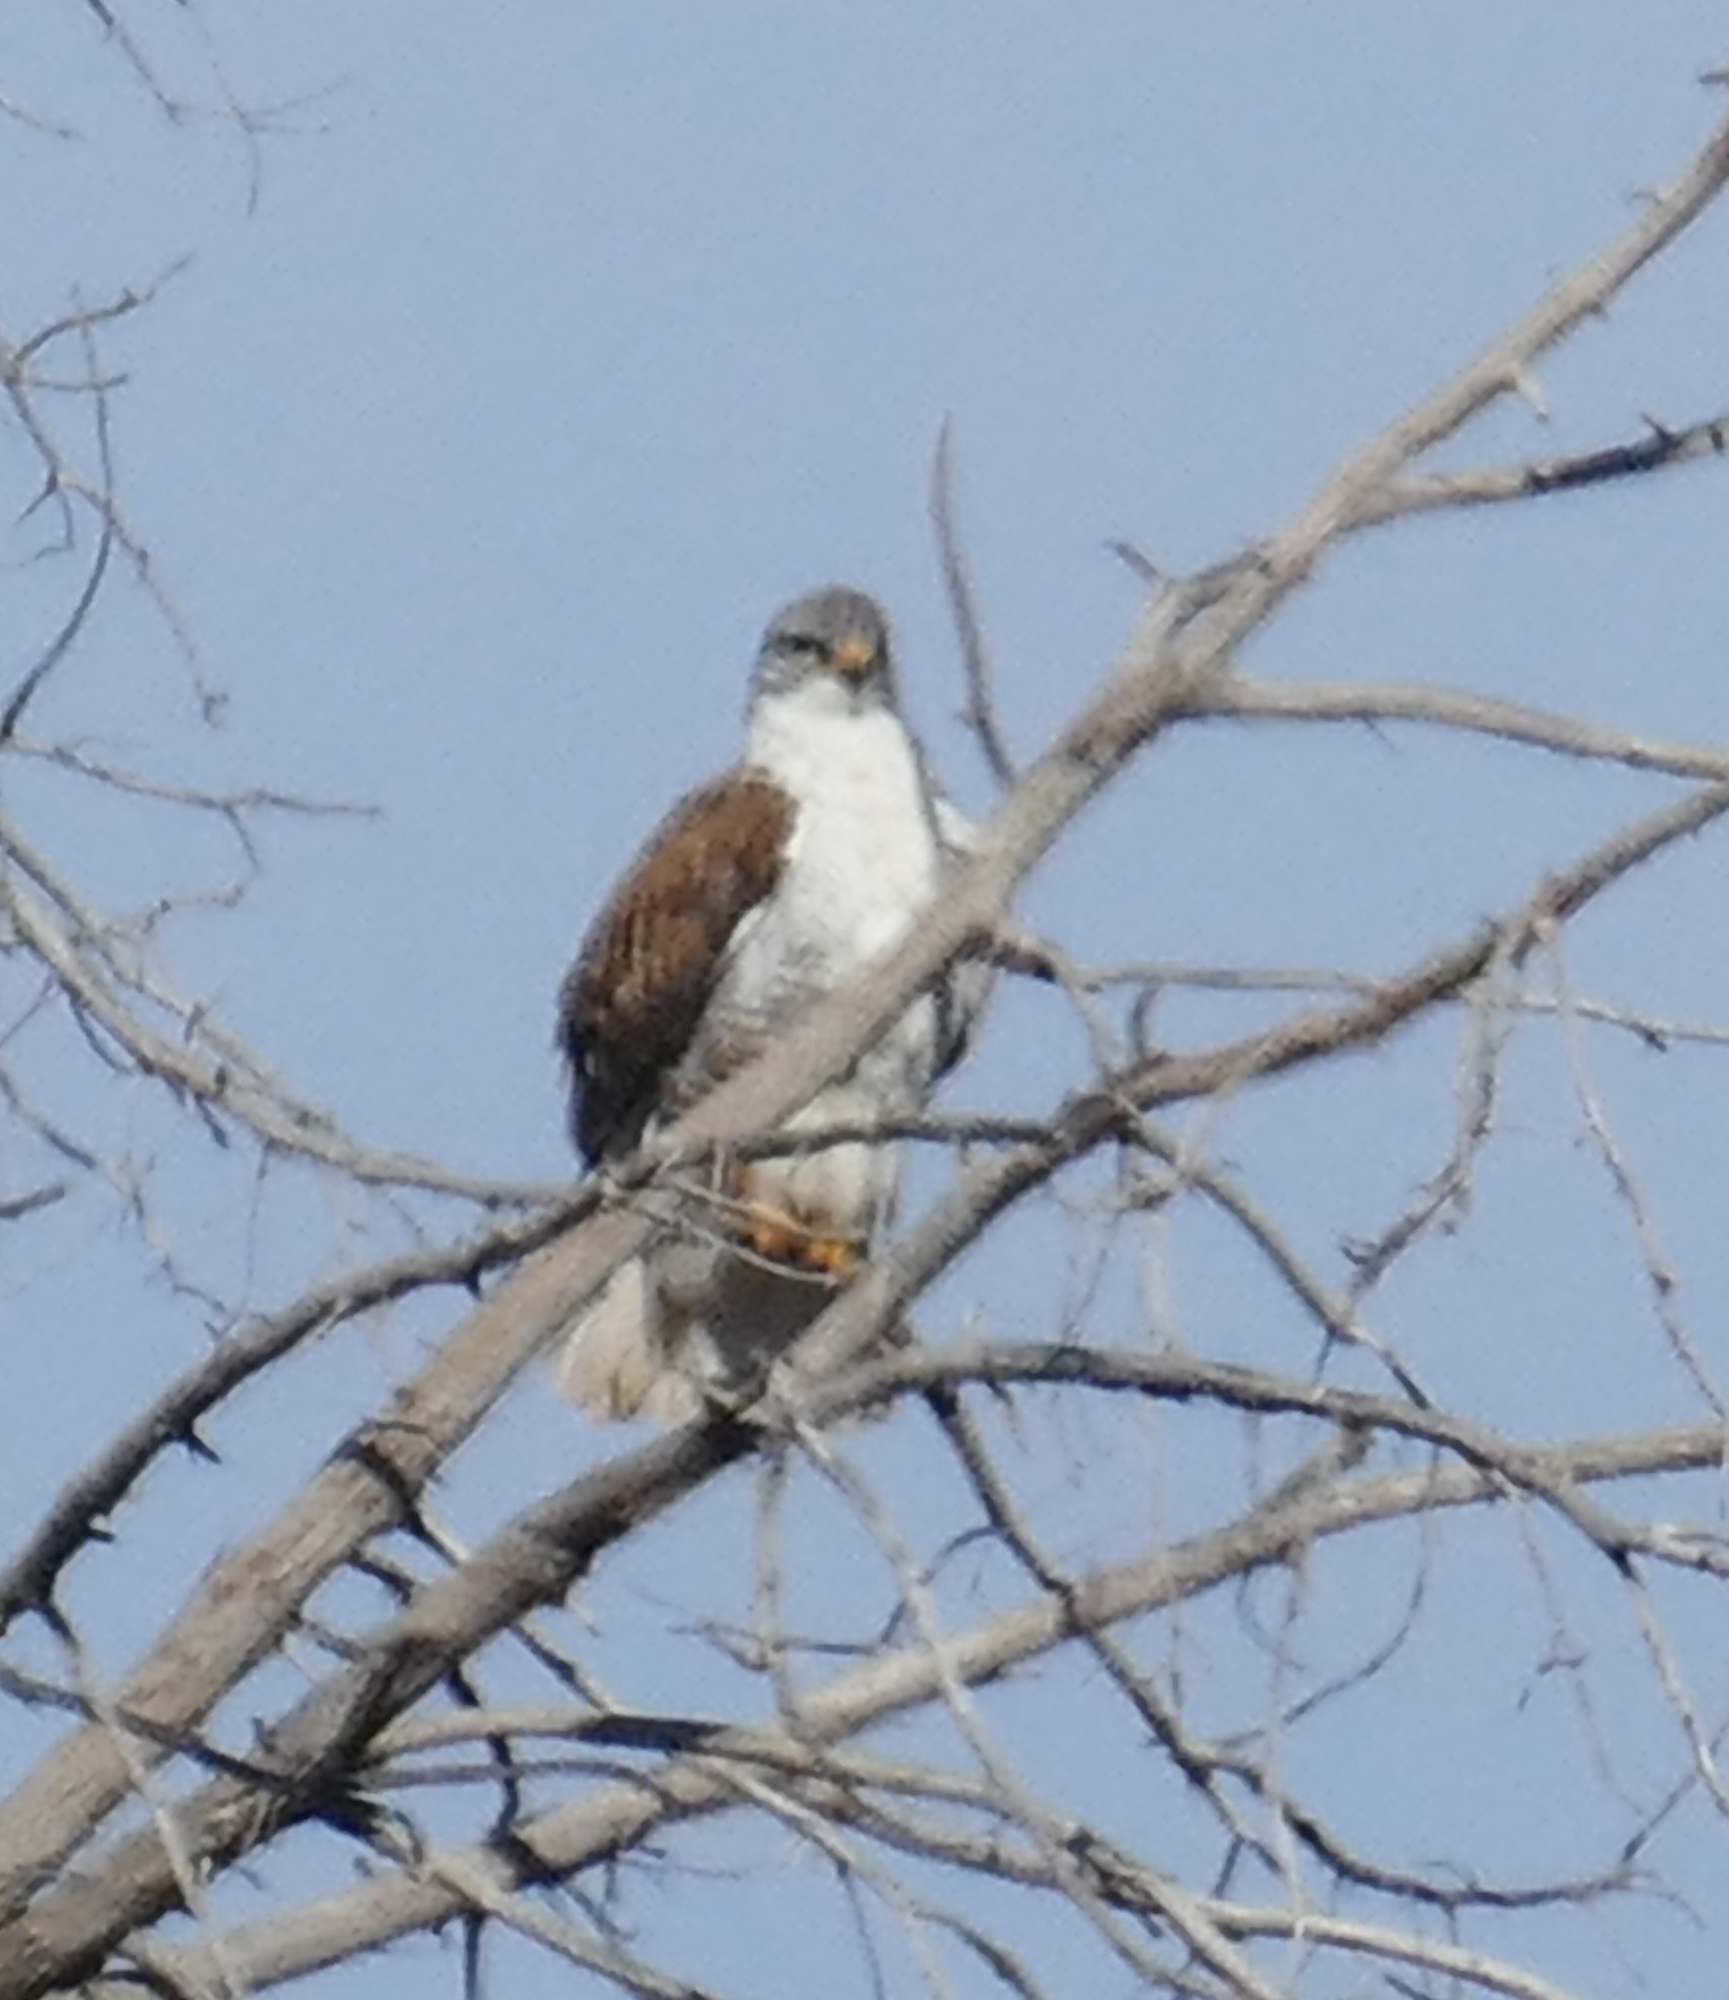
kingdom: Animalia
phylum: Chordata
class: Aves
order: Accipitriformes
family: Accipitridae
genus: Buteo
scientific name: Buteo regalis
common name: Ferruginous hawk
